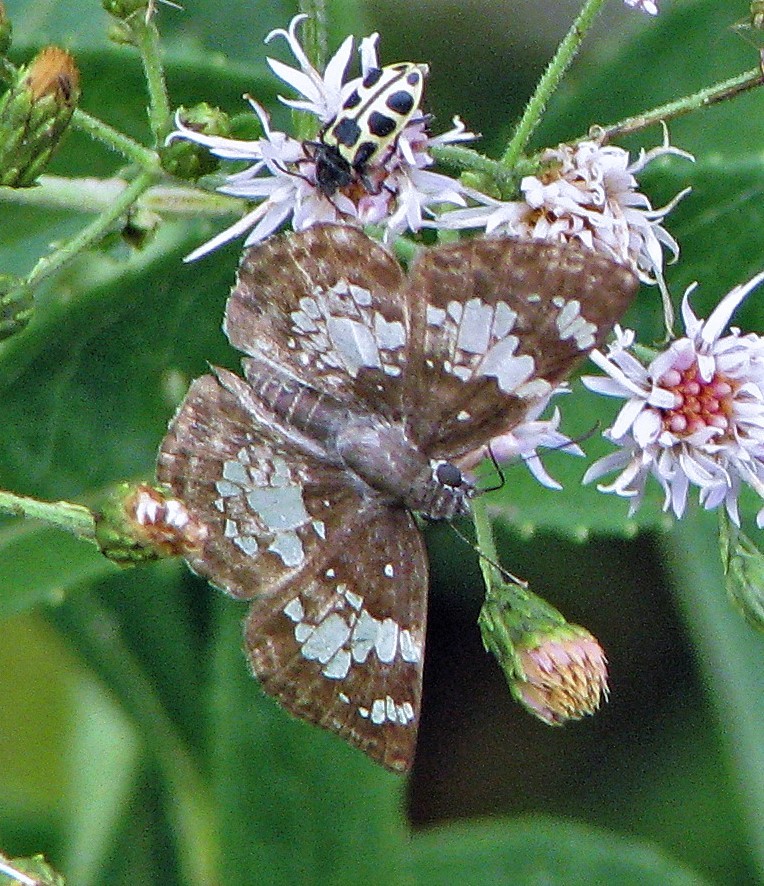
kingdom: Animalia
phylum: Arthropoda
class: Insecta
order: Lepidoptera
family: Hesperiidae
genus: Xenophanes
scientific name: Xenophanes tryxus
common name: Glassy-winged skipper
